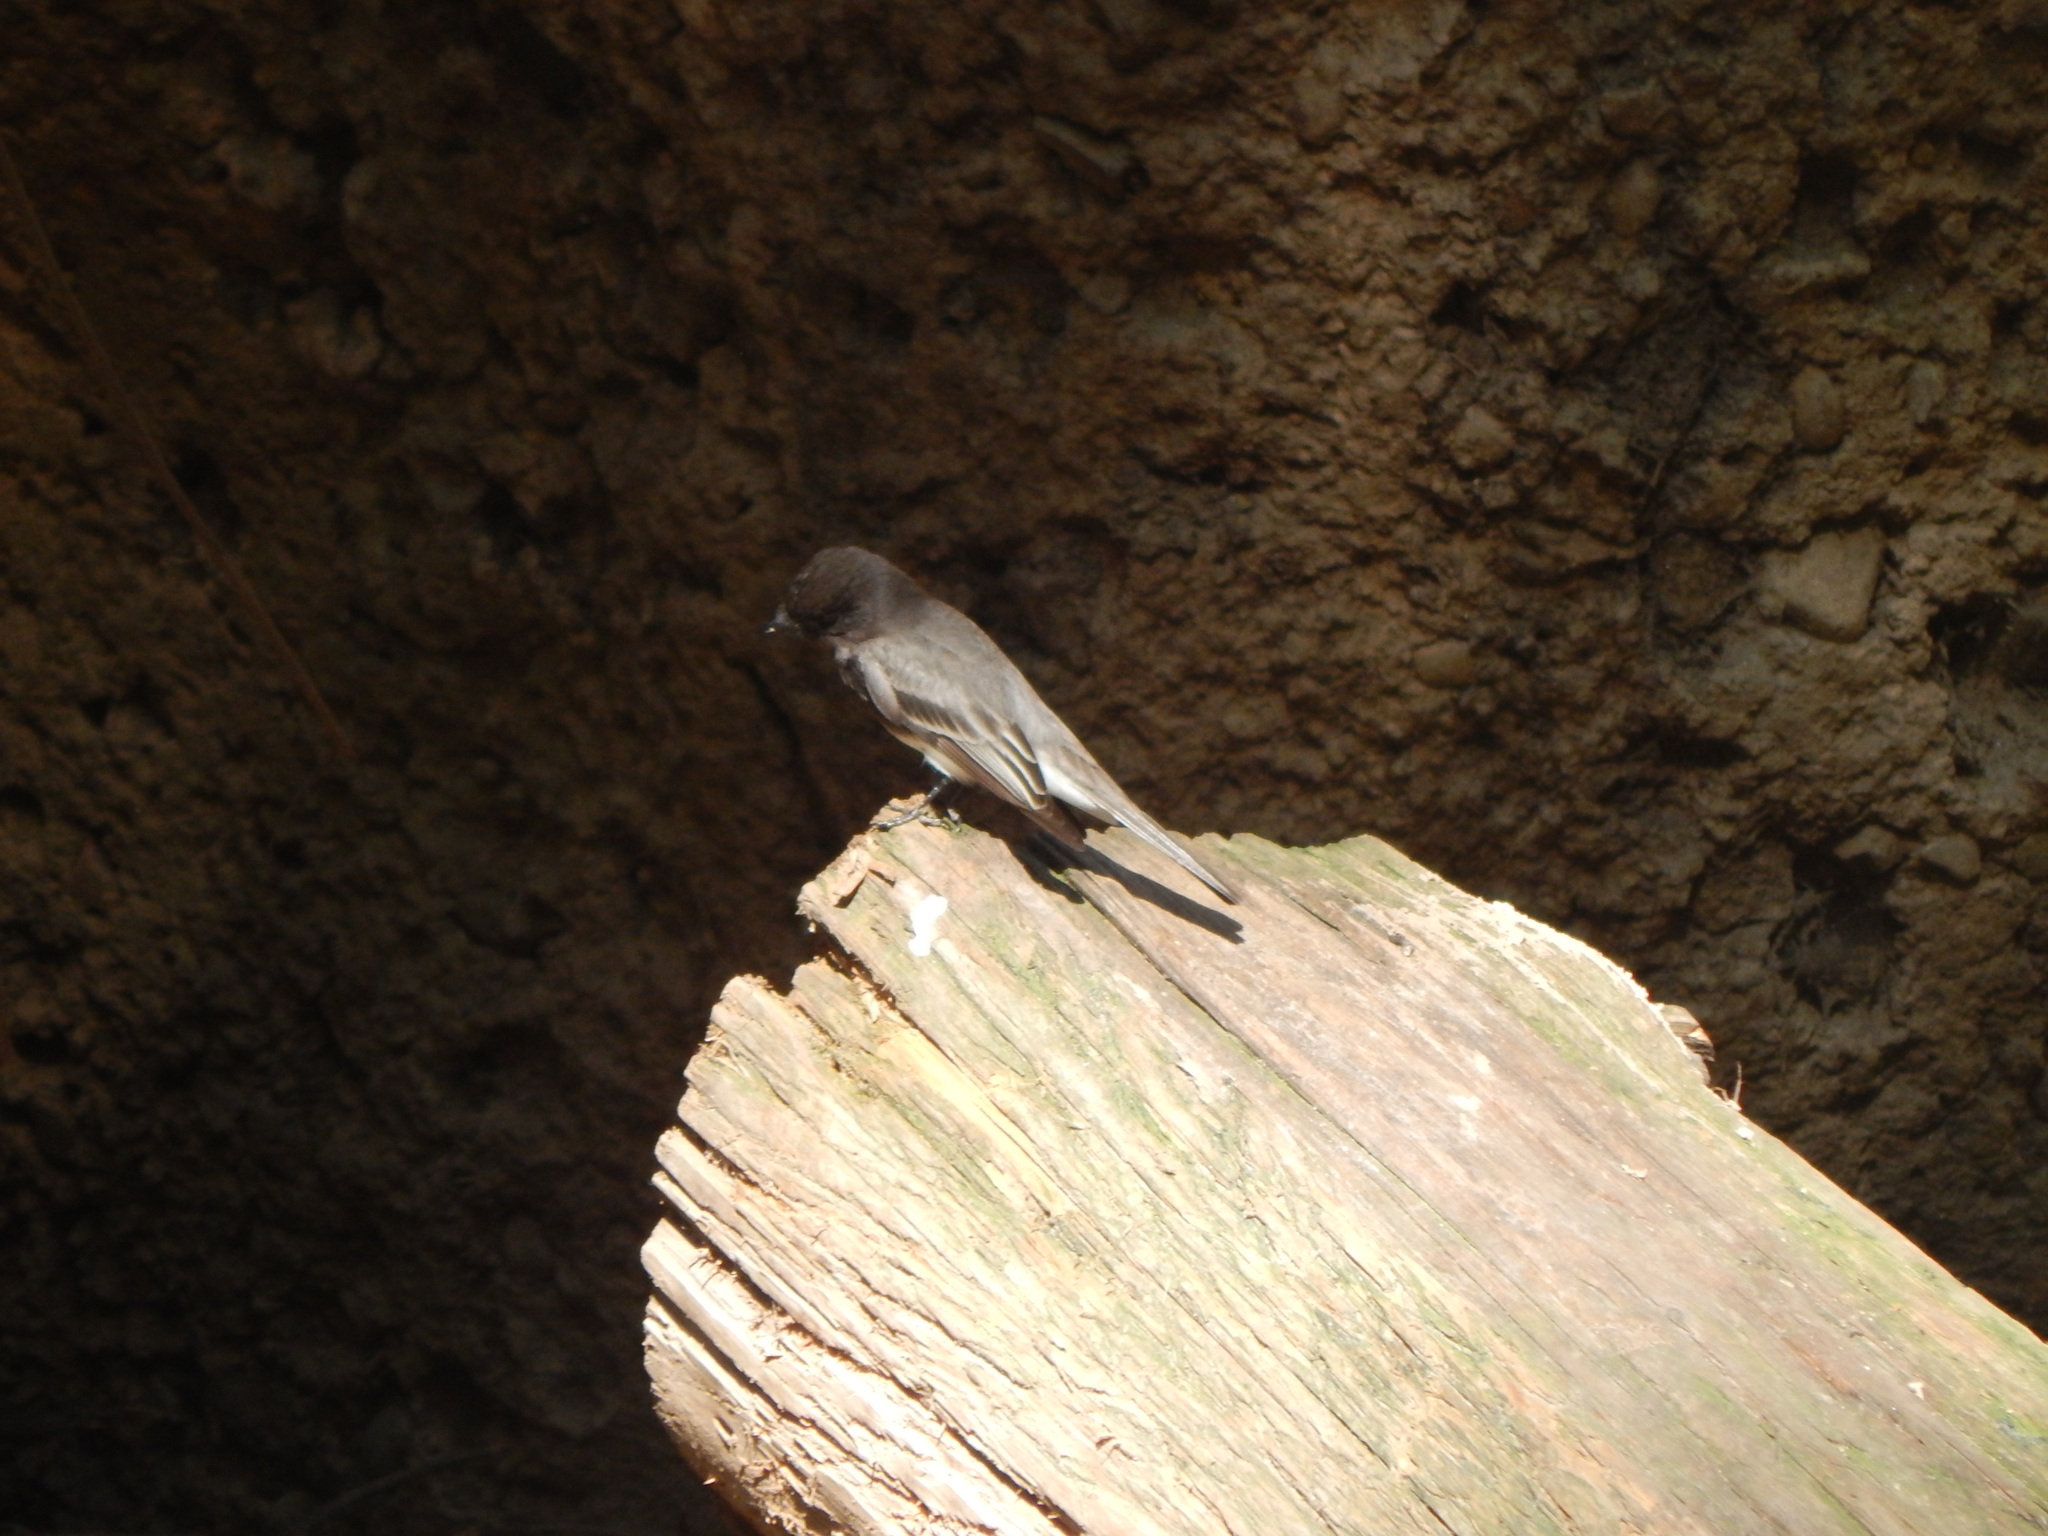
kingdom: Animalia
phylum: Chordata
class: Aves
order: Passeriformes
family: Tyrannidae
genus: Sayornis
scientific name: Sayornis nigricans
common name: Black phoebe
